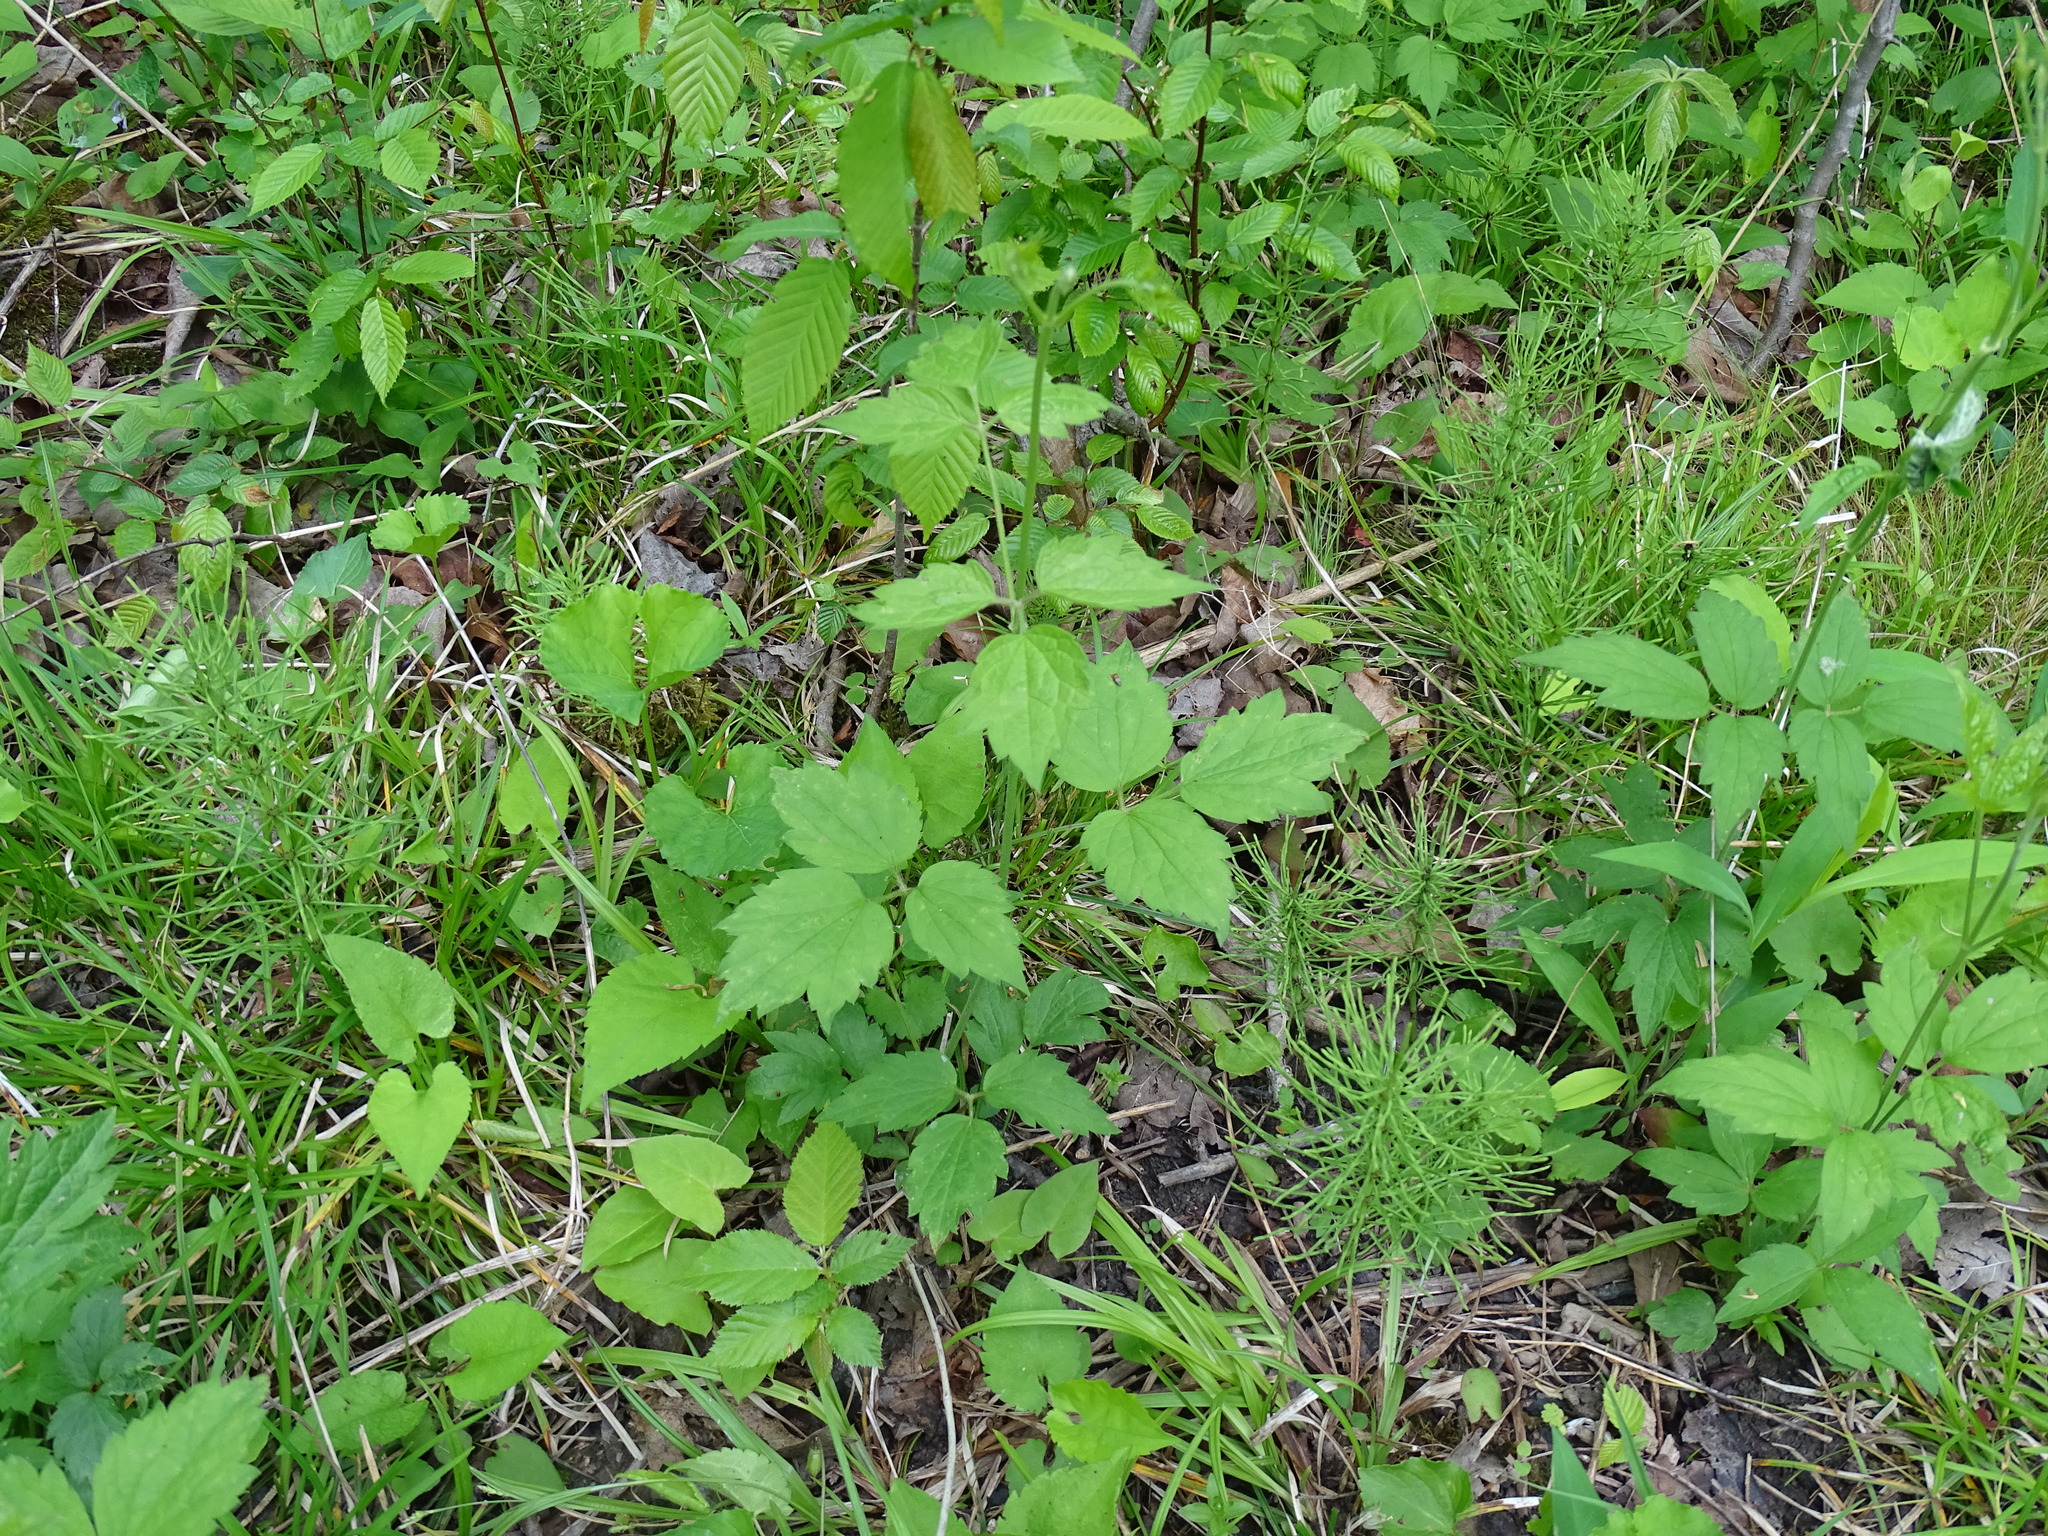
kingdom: Plantae
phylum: Tracheophyta
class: Magnoliopsida
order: Ranunculales
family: Ranunculaceae
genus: Clematis
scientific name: Clematis virginiana
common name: Virgin's-bower
